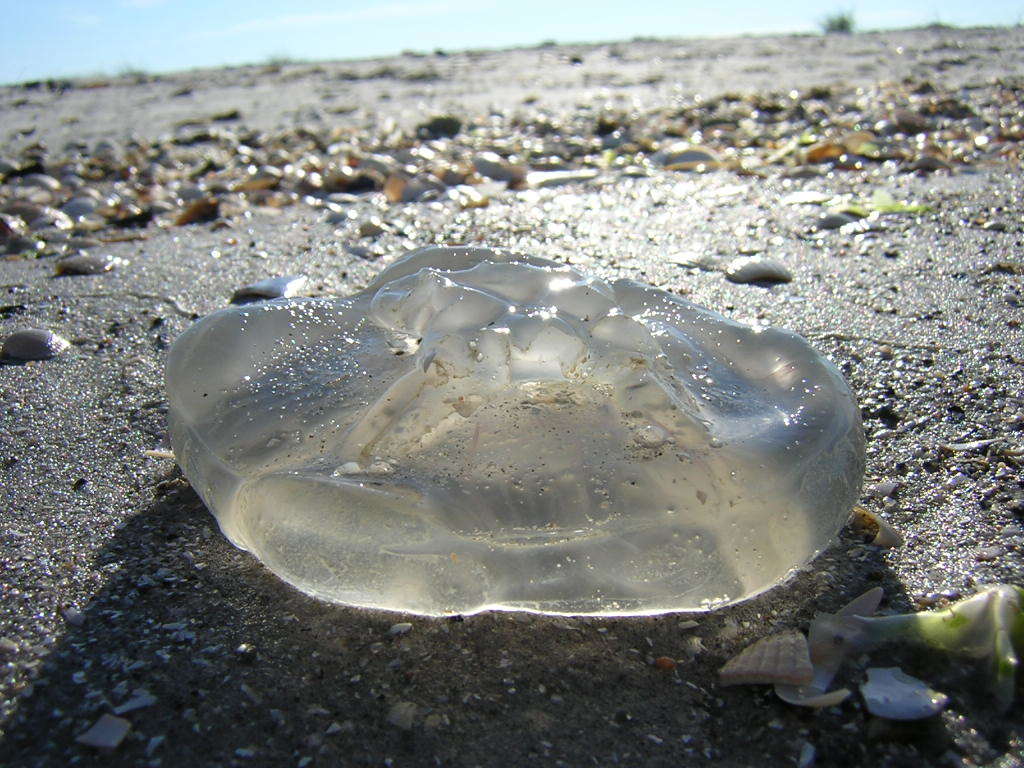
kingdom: Animalia
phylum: Cnidaria
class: Scyphozoa
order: Semaeostomeae
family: Ulmaridae
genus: Aurelia
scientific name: Aurelia aurita
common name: Moon jellyfish
